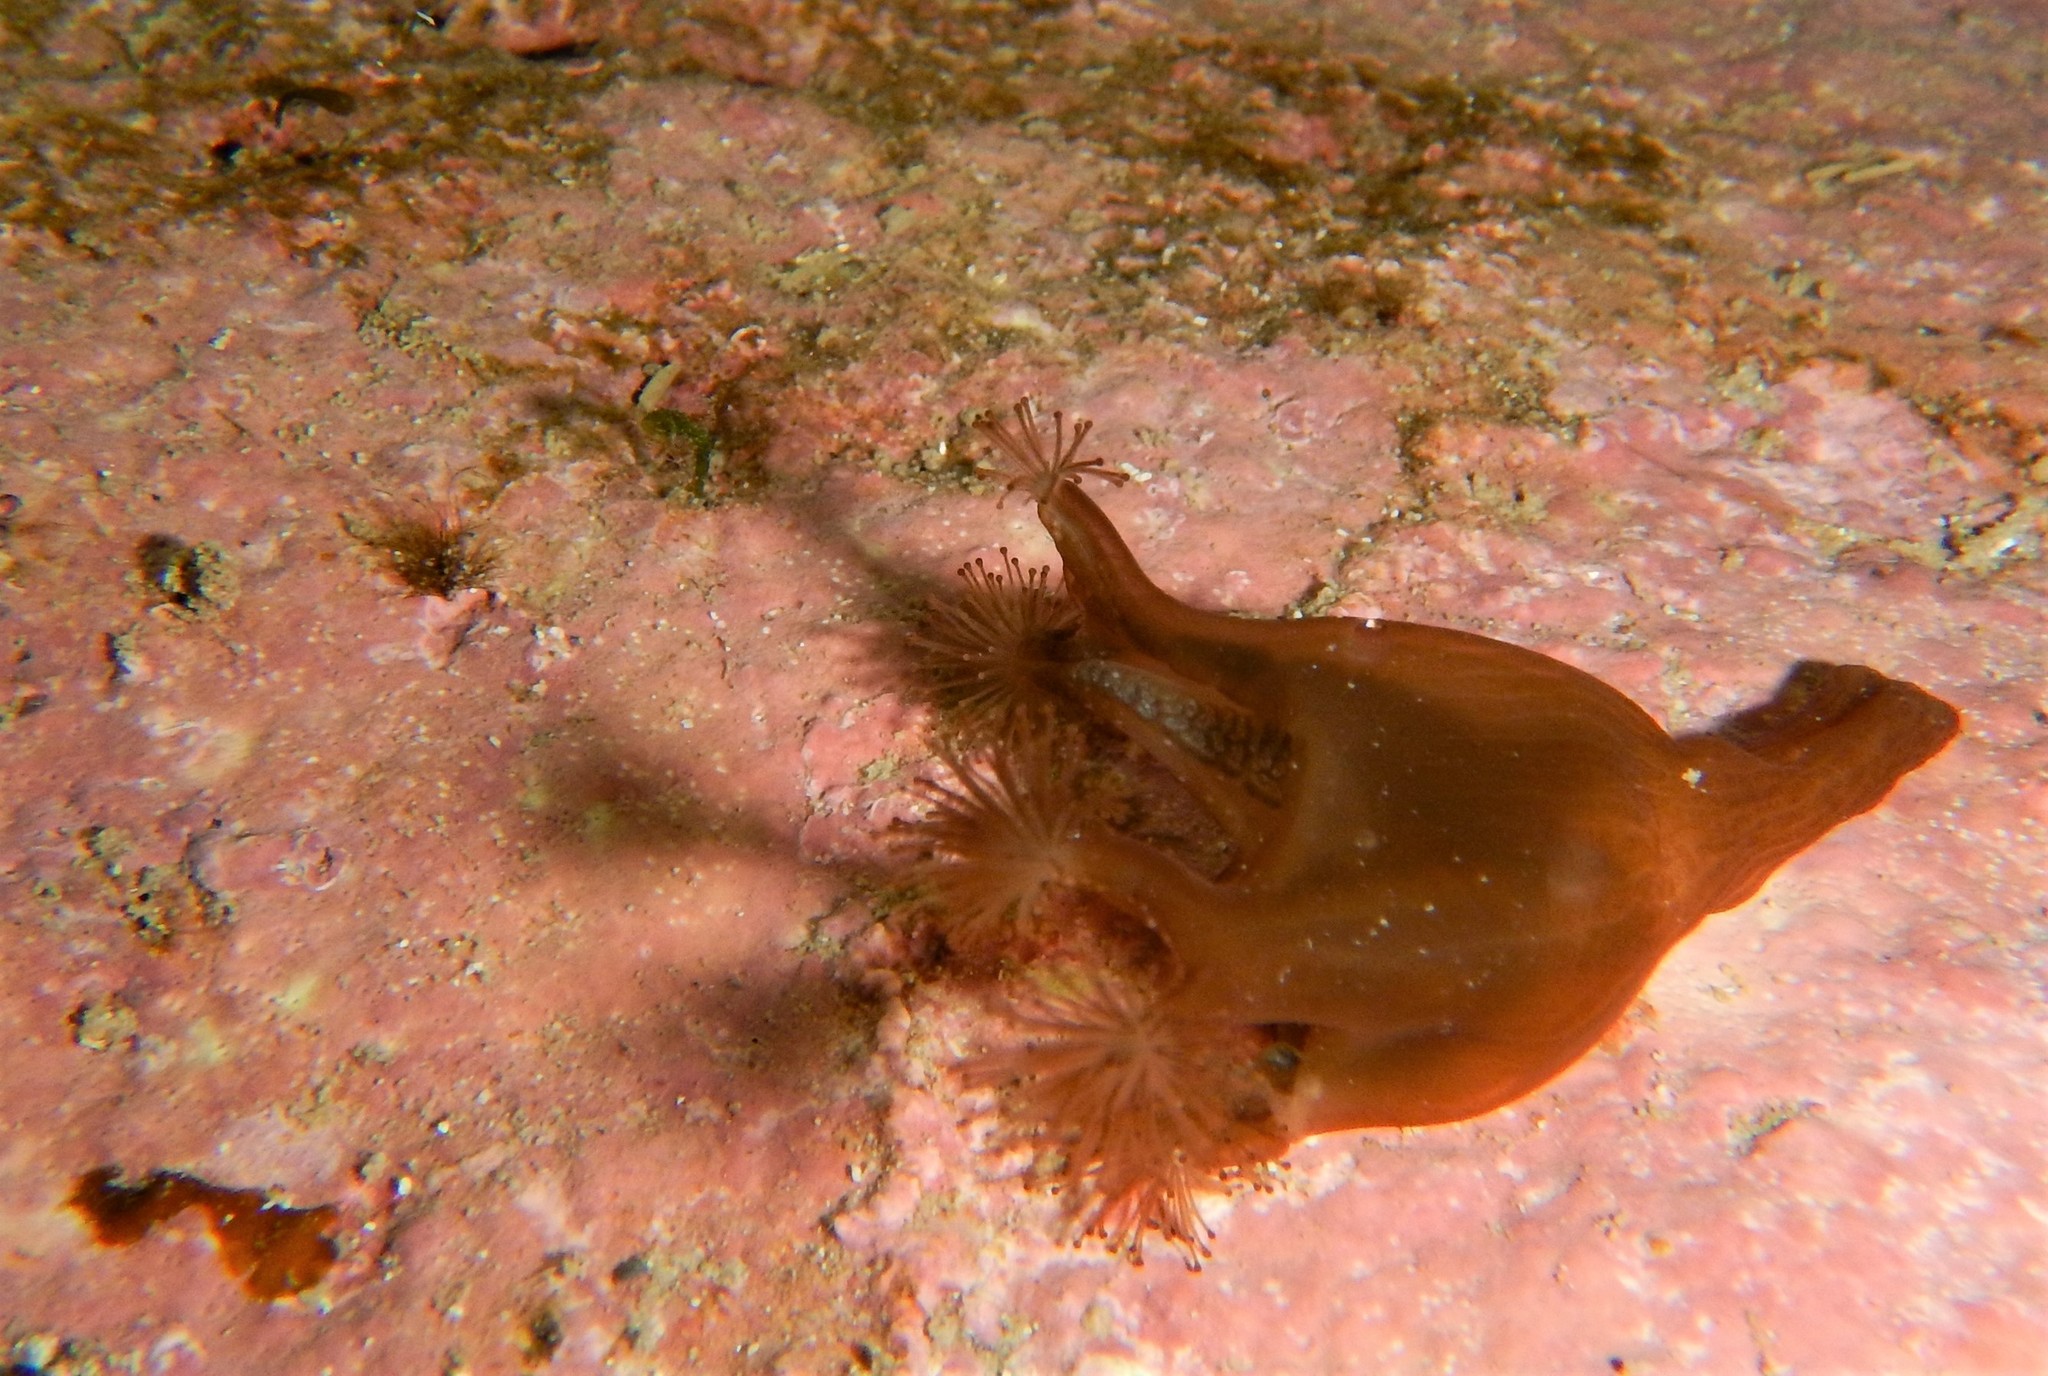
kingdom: Animalia
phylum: Cnidaria
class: Staurozoa
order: Stauromedusae
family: Lucernariidae
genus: Lucernaria
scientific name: Lucernaria quadricornis
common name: Horned stalked jellyfish
